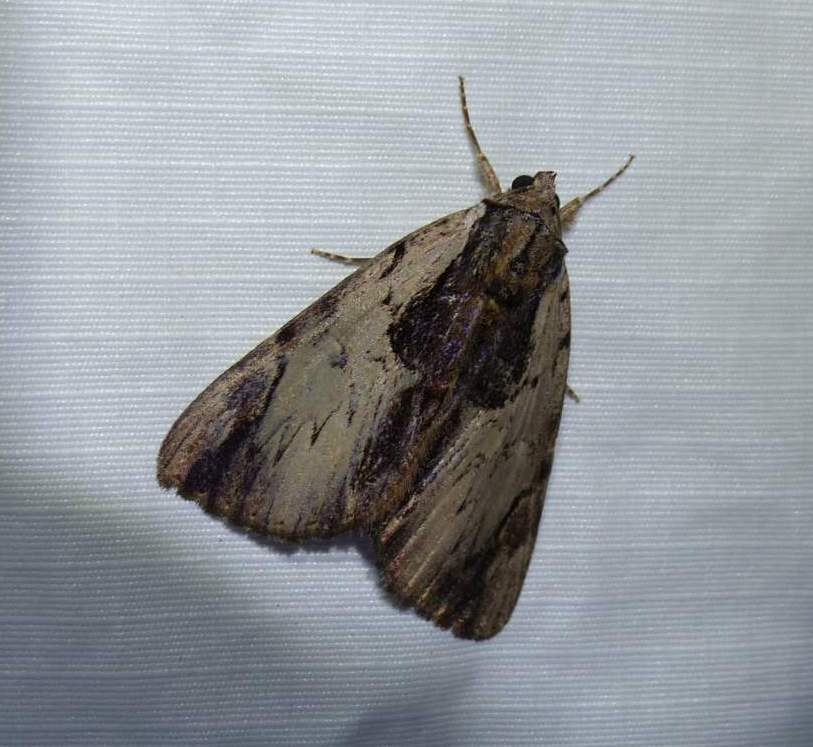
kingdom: Animalia
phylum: Arthropoda
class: Insecta
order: Lepidoptera
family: Erebidae
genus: Catocala
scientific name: Catocala ultronia
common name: Ultronia underwing
